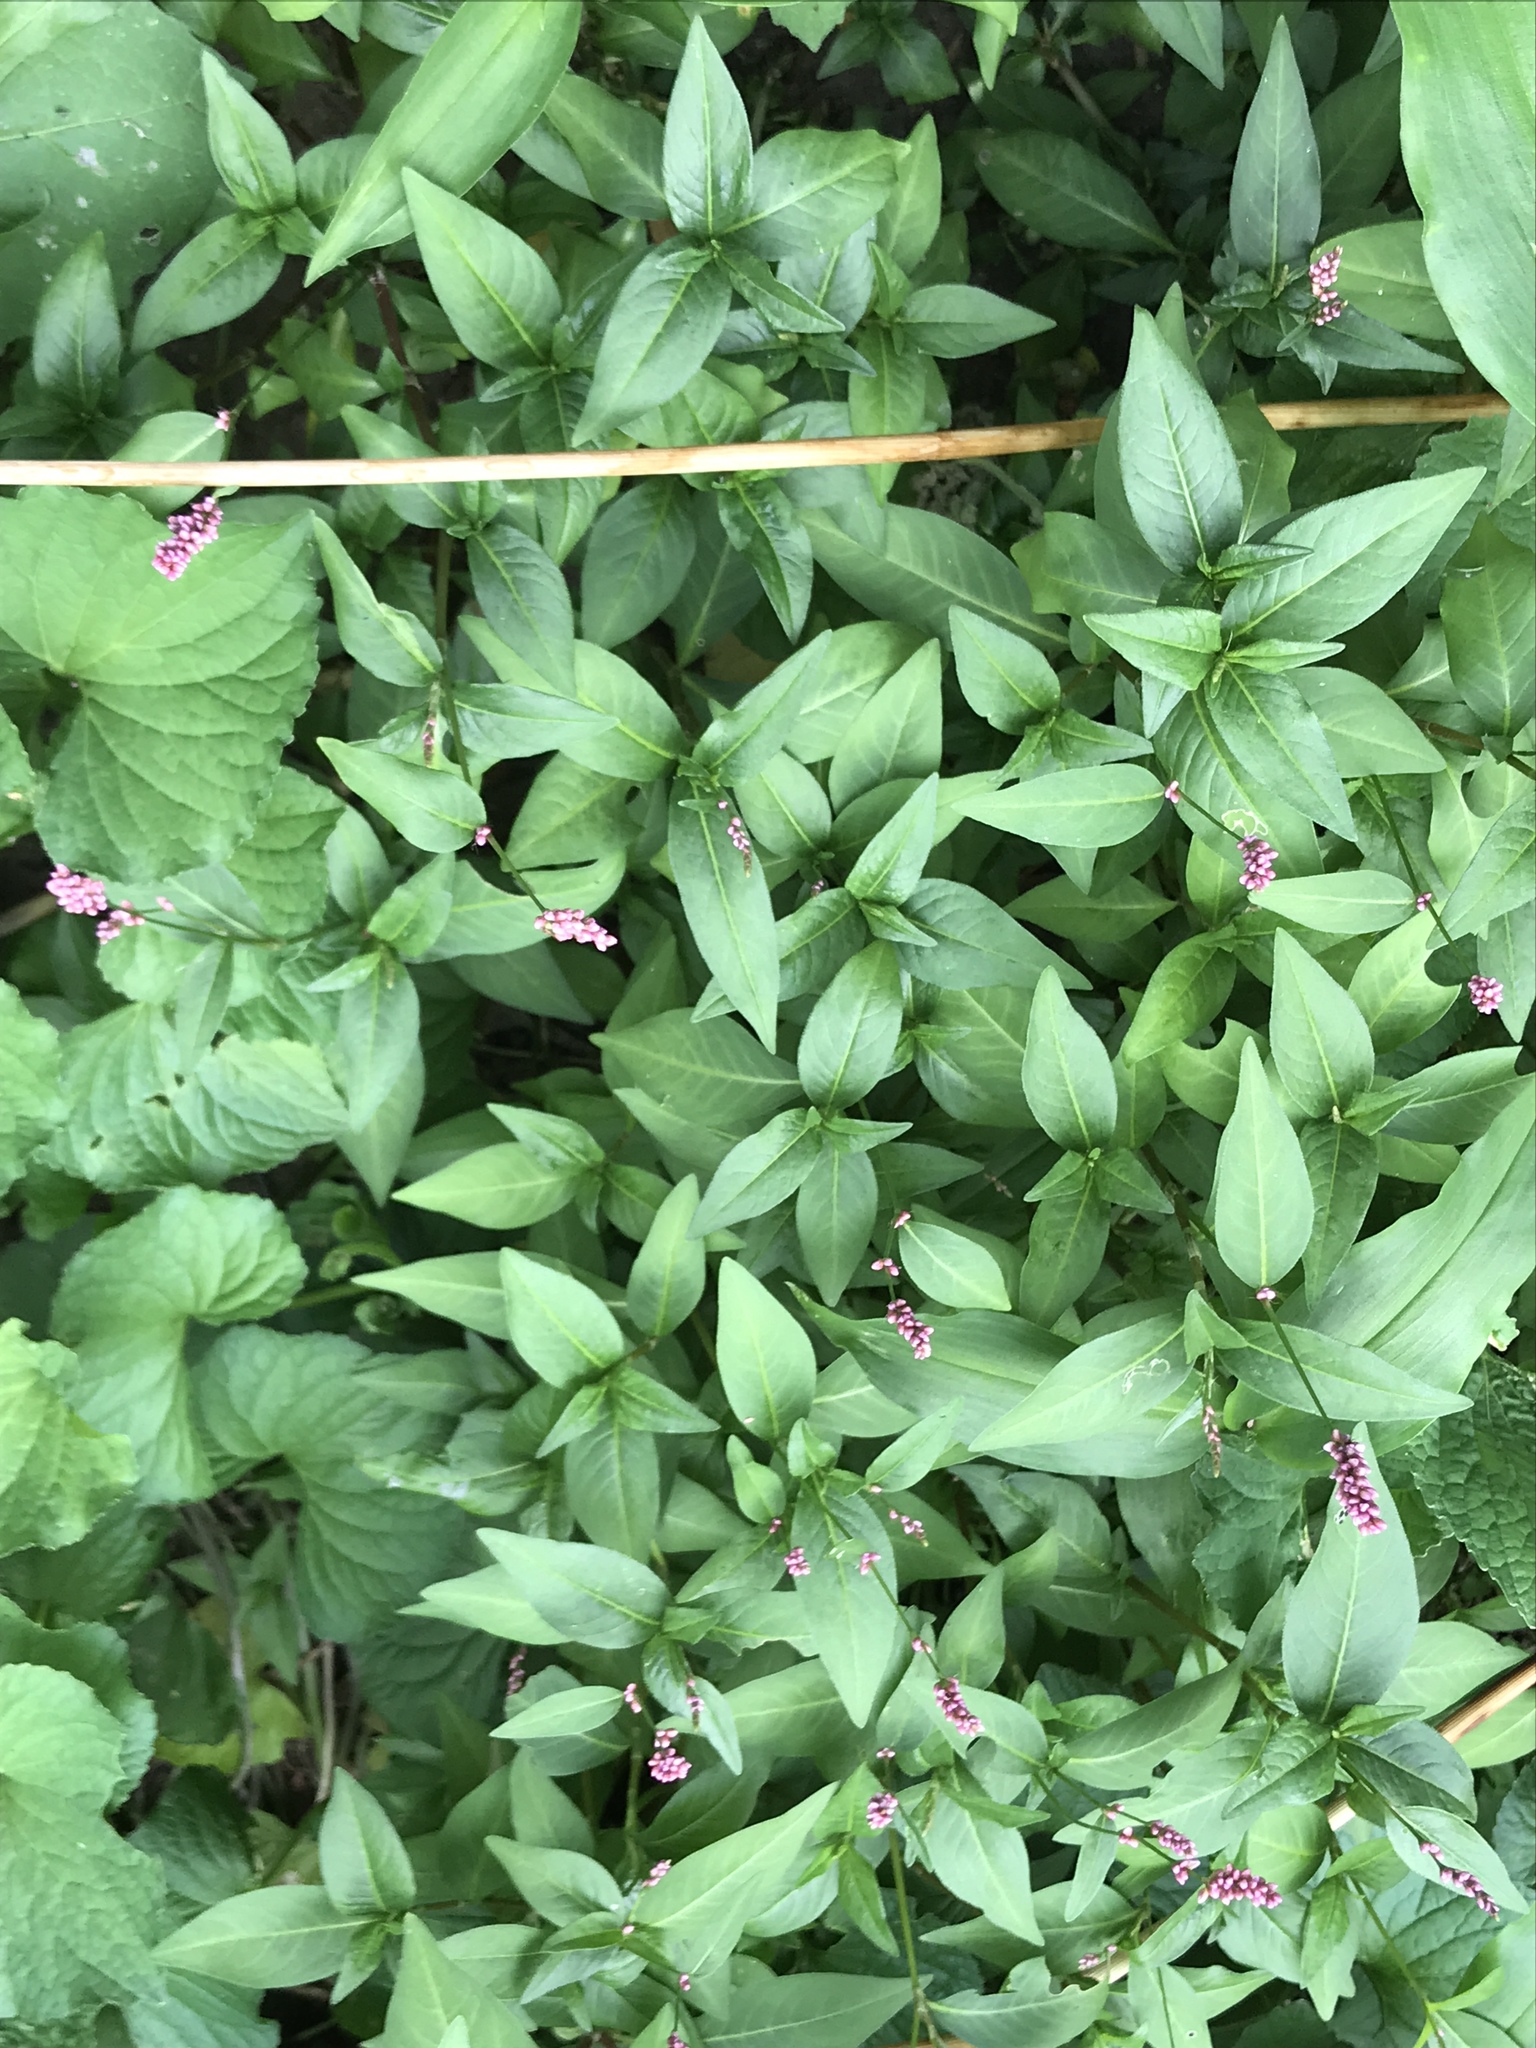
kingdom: Plantae
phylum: Tracheophyta
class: Magnoliopsida
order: Caryophyllales
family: Polygonaceae
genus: Persicaria
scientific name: Persicaria longiseta
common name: Bristly lady's-thumb
